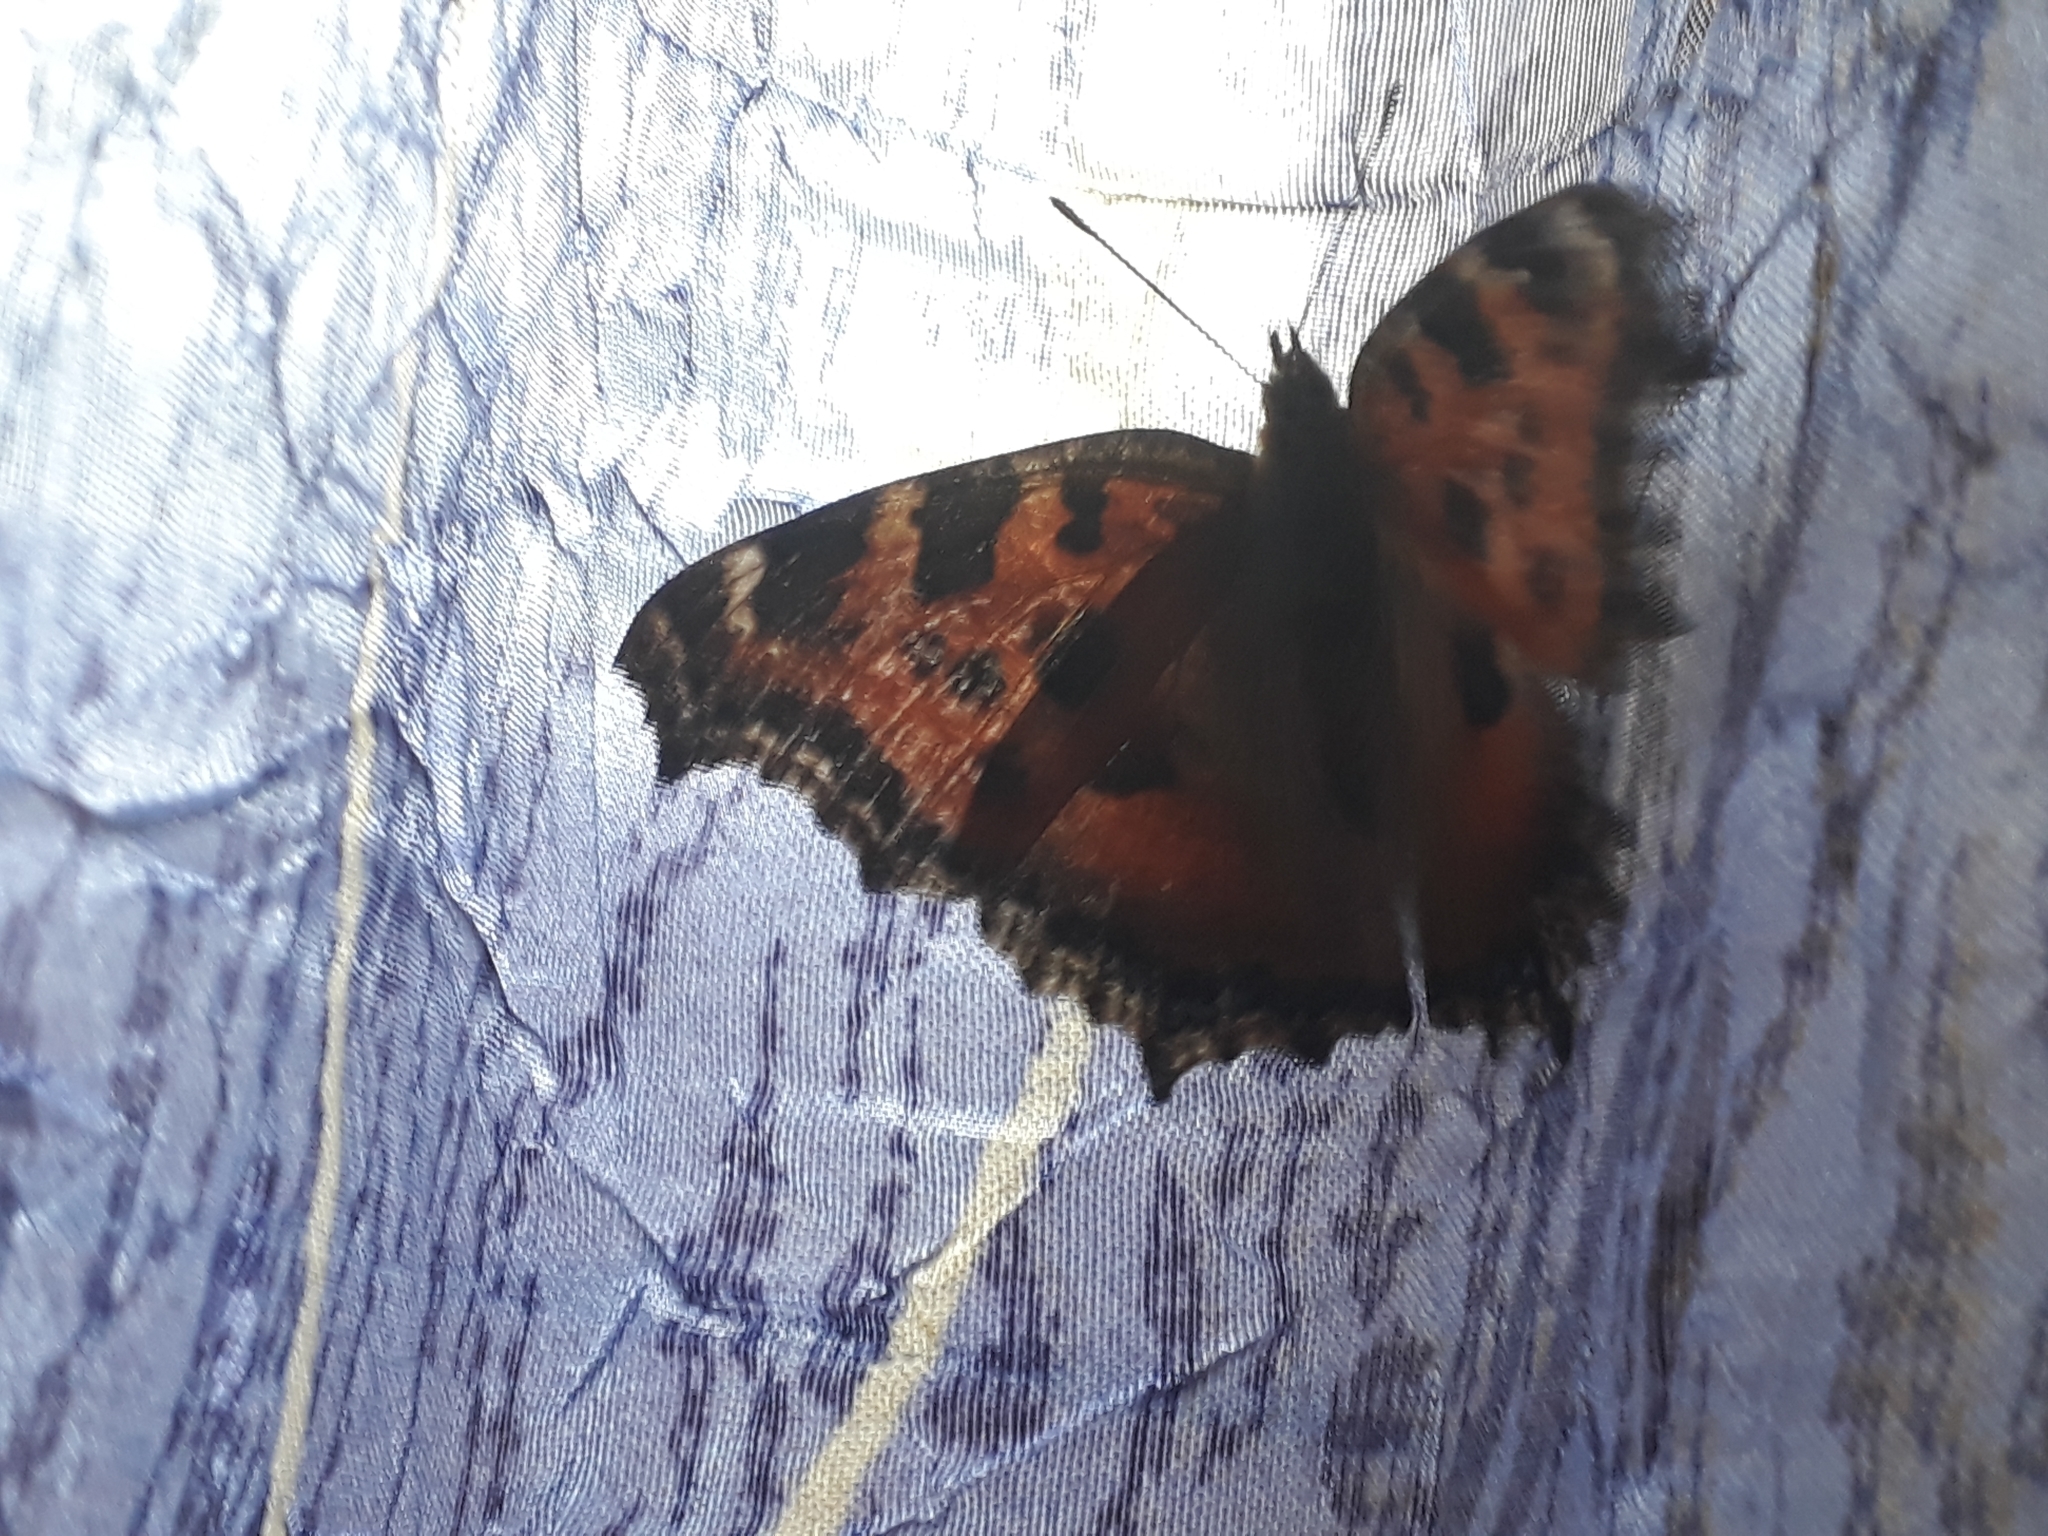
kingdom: Animalia
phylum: Arthropoda
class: Insecta
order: Lepidoptera
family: Nymphalidae
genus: Nymphalis
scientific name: Nymphalis xanthomelas
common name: Scarce tortoiseshell
